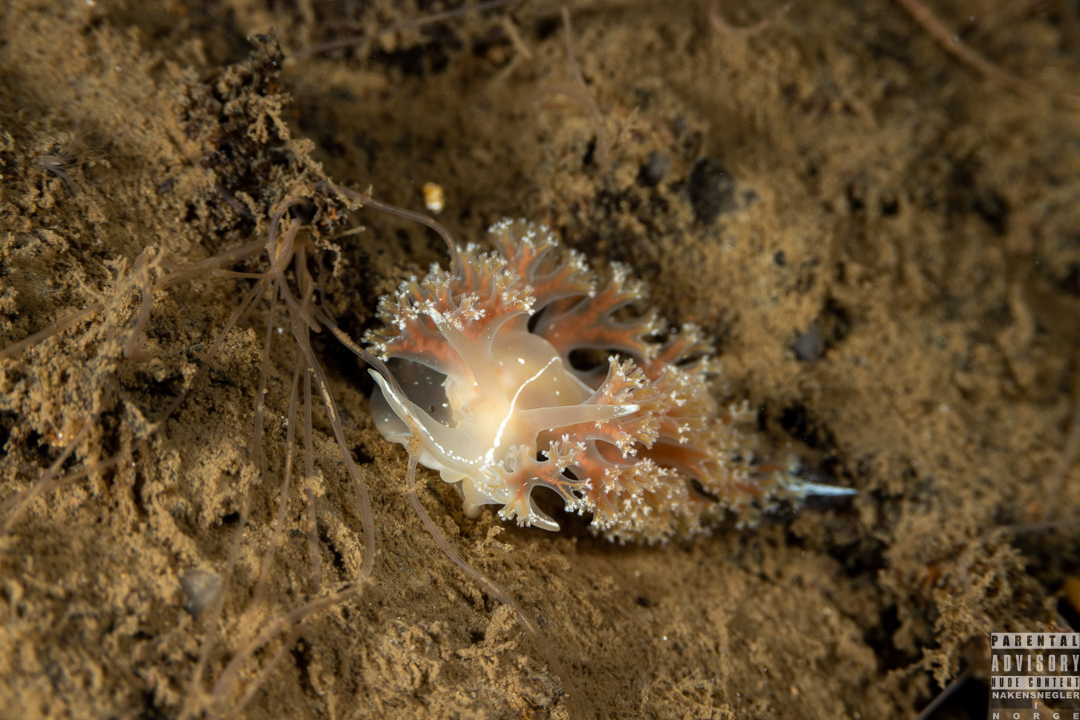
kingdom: Animalia
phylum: Mollusca
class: Gastropoda
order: Nudibranchia
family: Heroidae
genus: Hero
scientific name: Hero formosa
